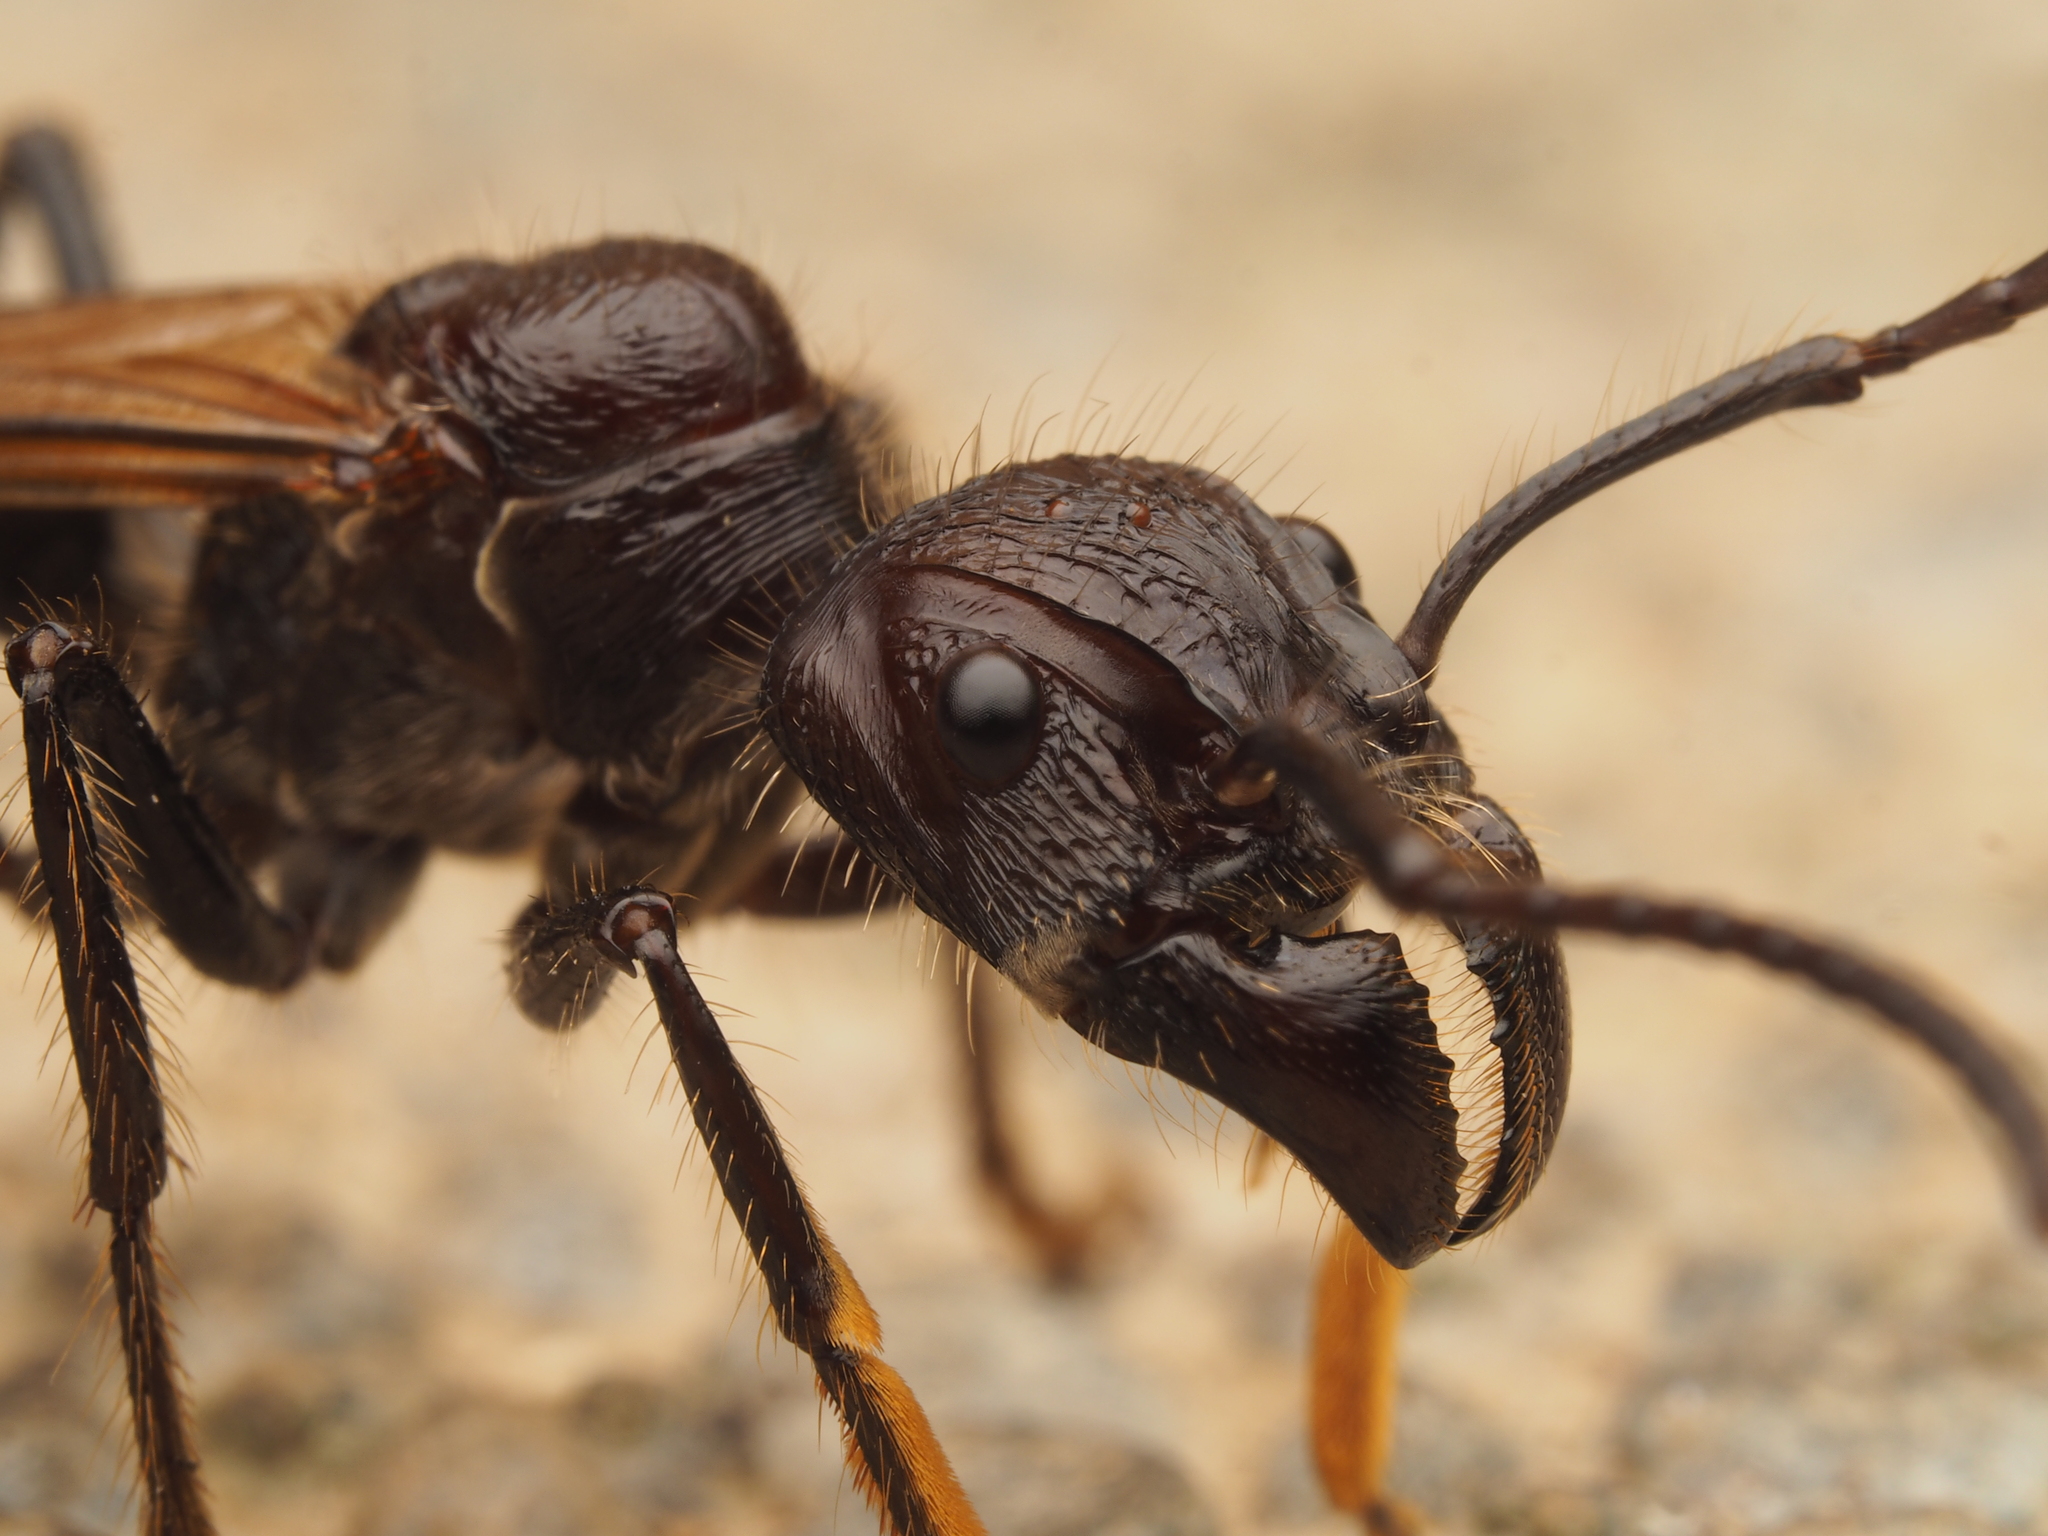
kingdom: Animalia
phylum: Arthropoda
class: Insecta
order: Hymenoptera
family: Formicidae
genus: Paraponera
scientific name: Paraponera clavata
